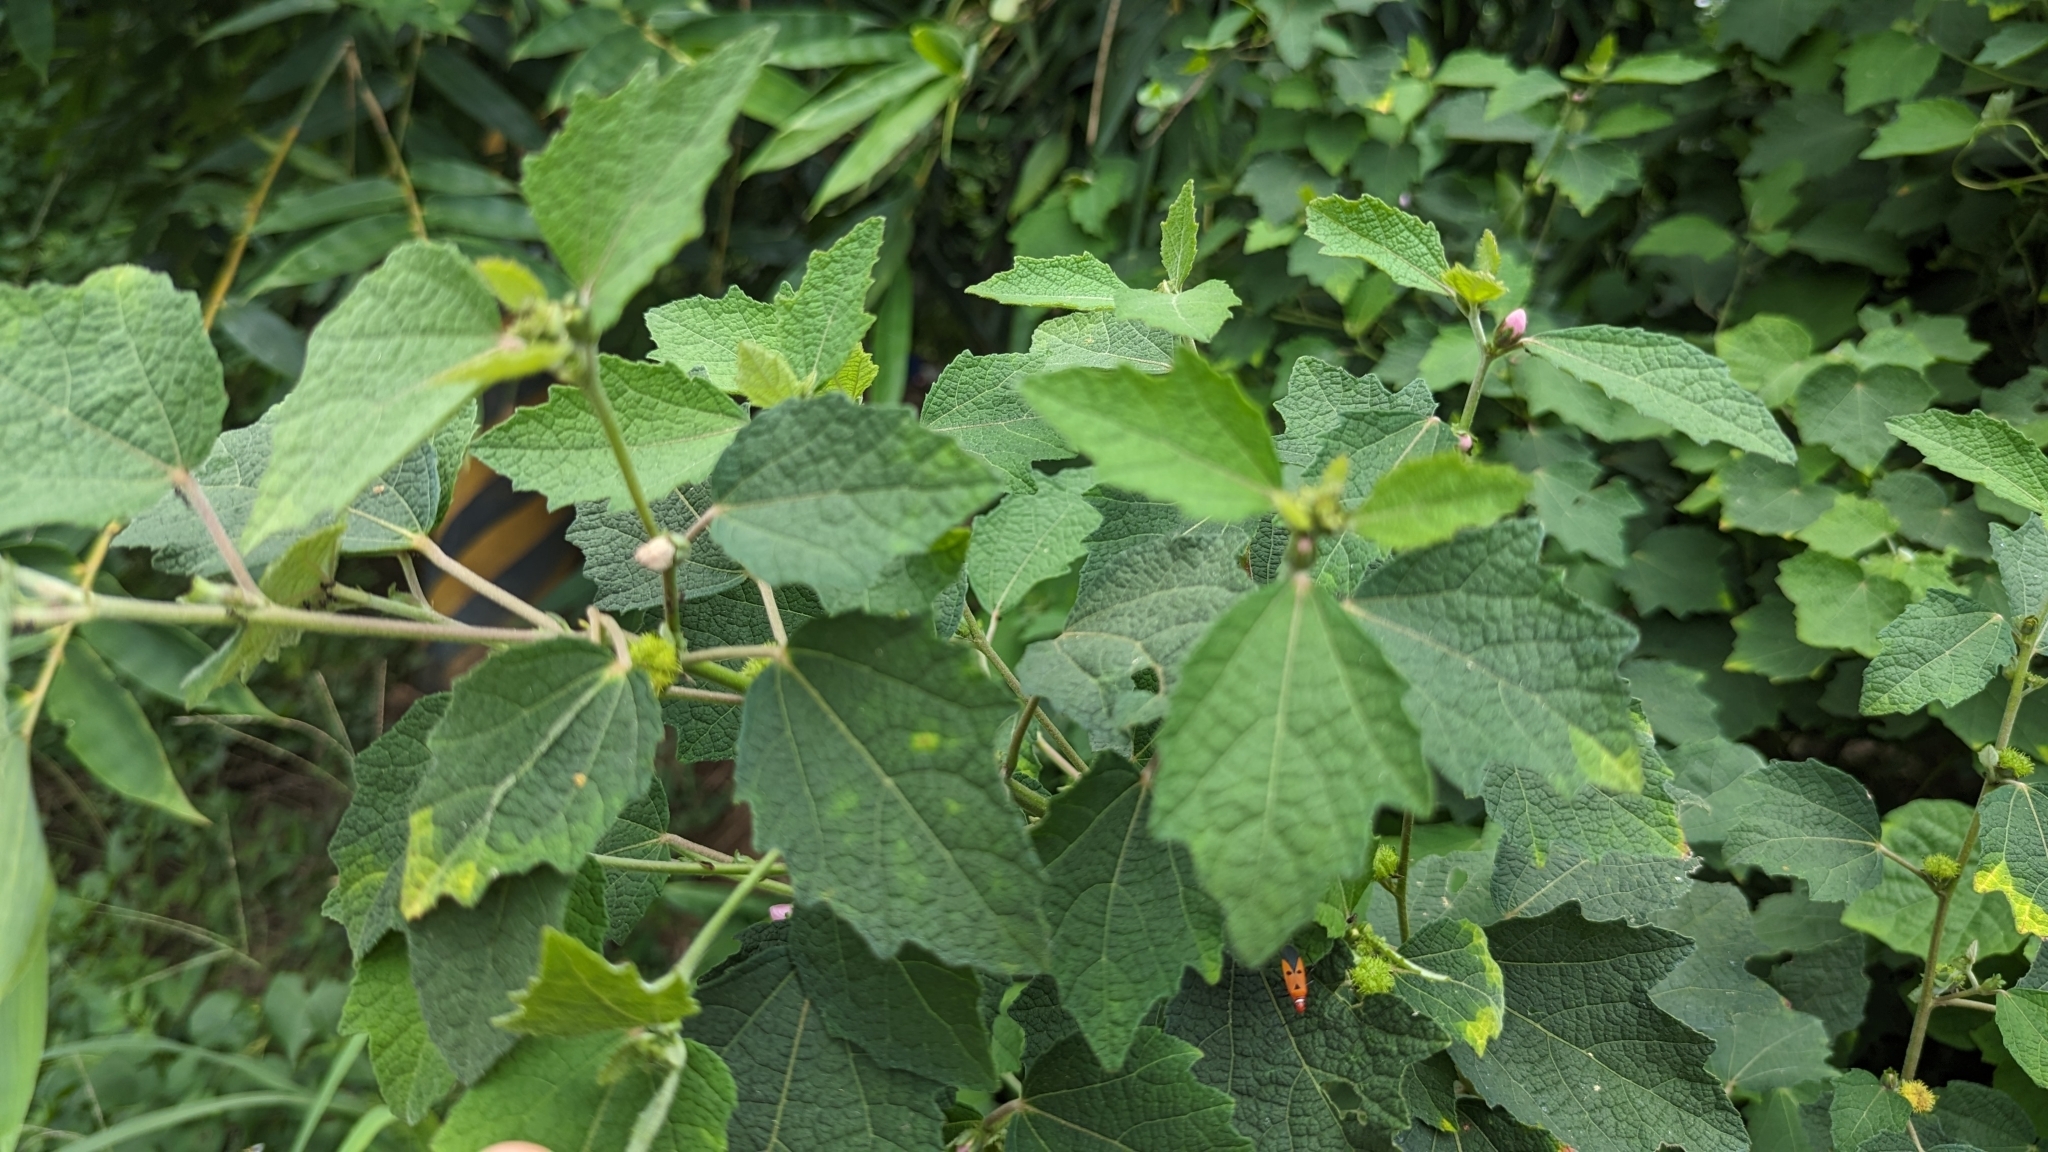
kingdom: Plantae
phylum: Tracheophyta
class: Magnoliopsida
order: Malvales
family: Malvaceae
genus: Urena
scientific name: Urena lobata
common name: Caesarweed
